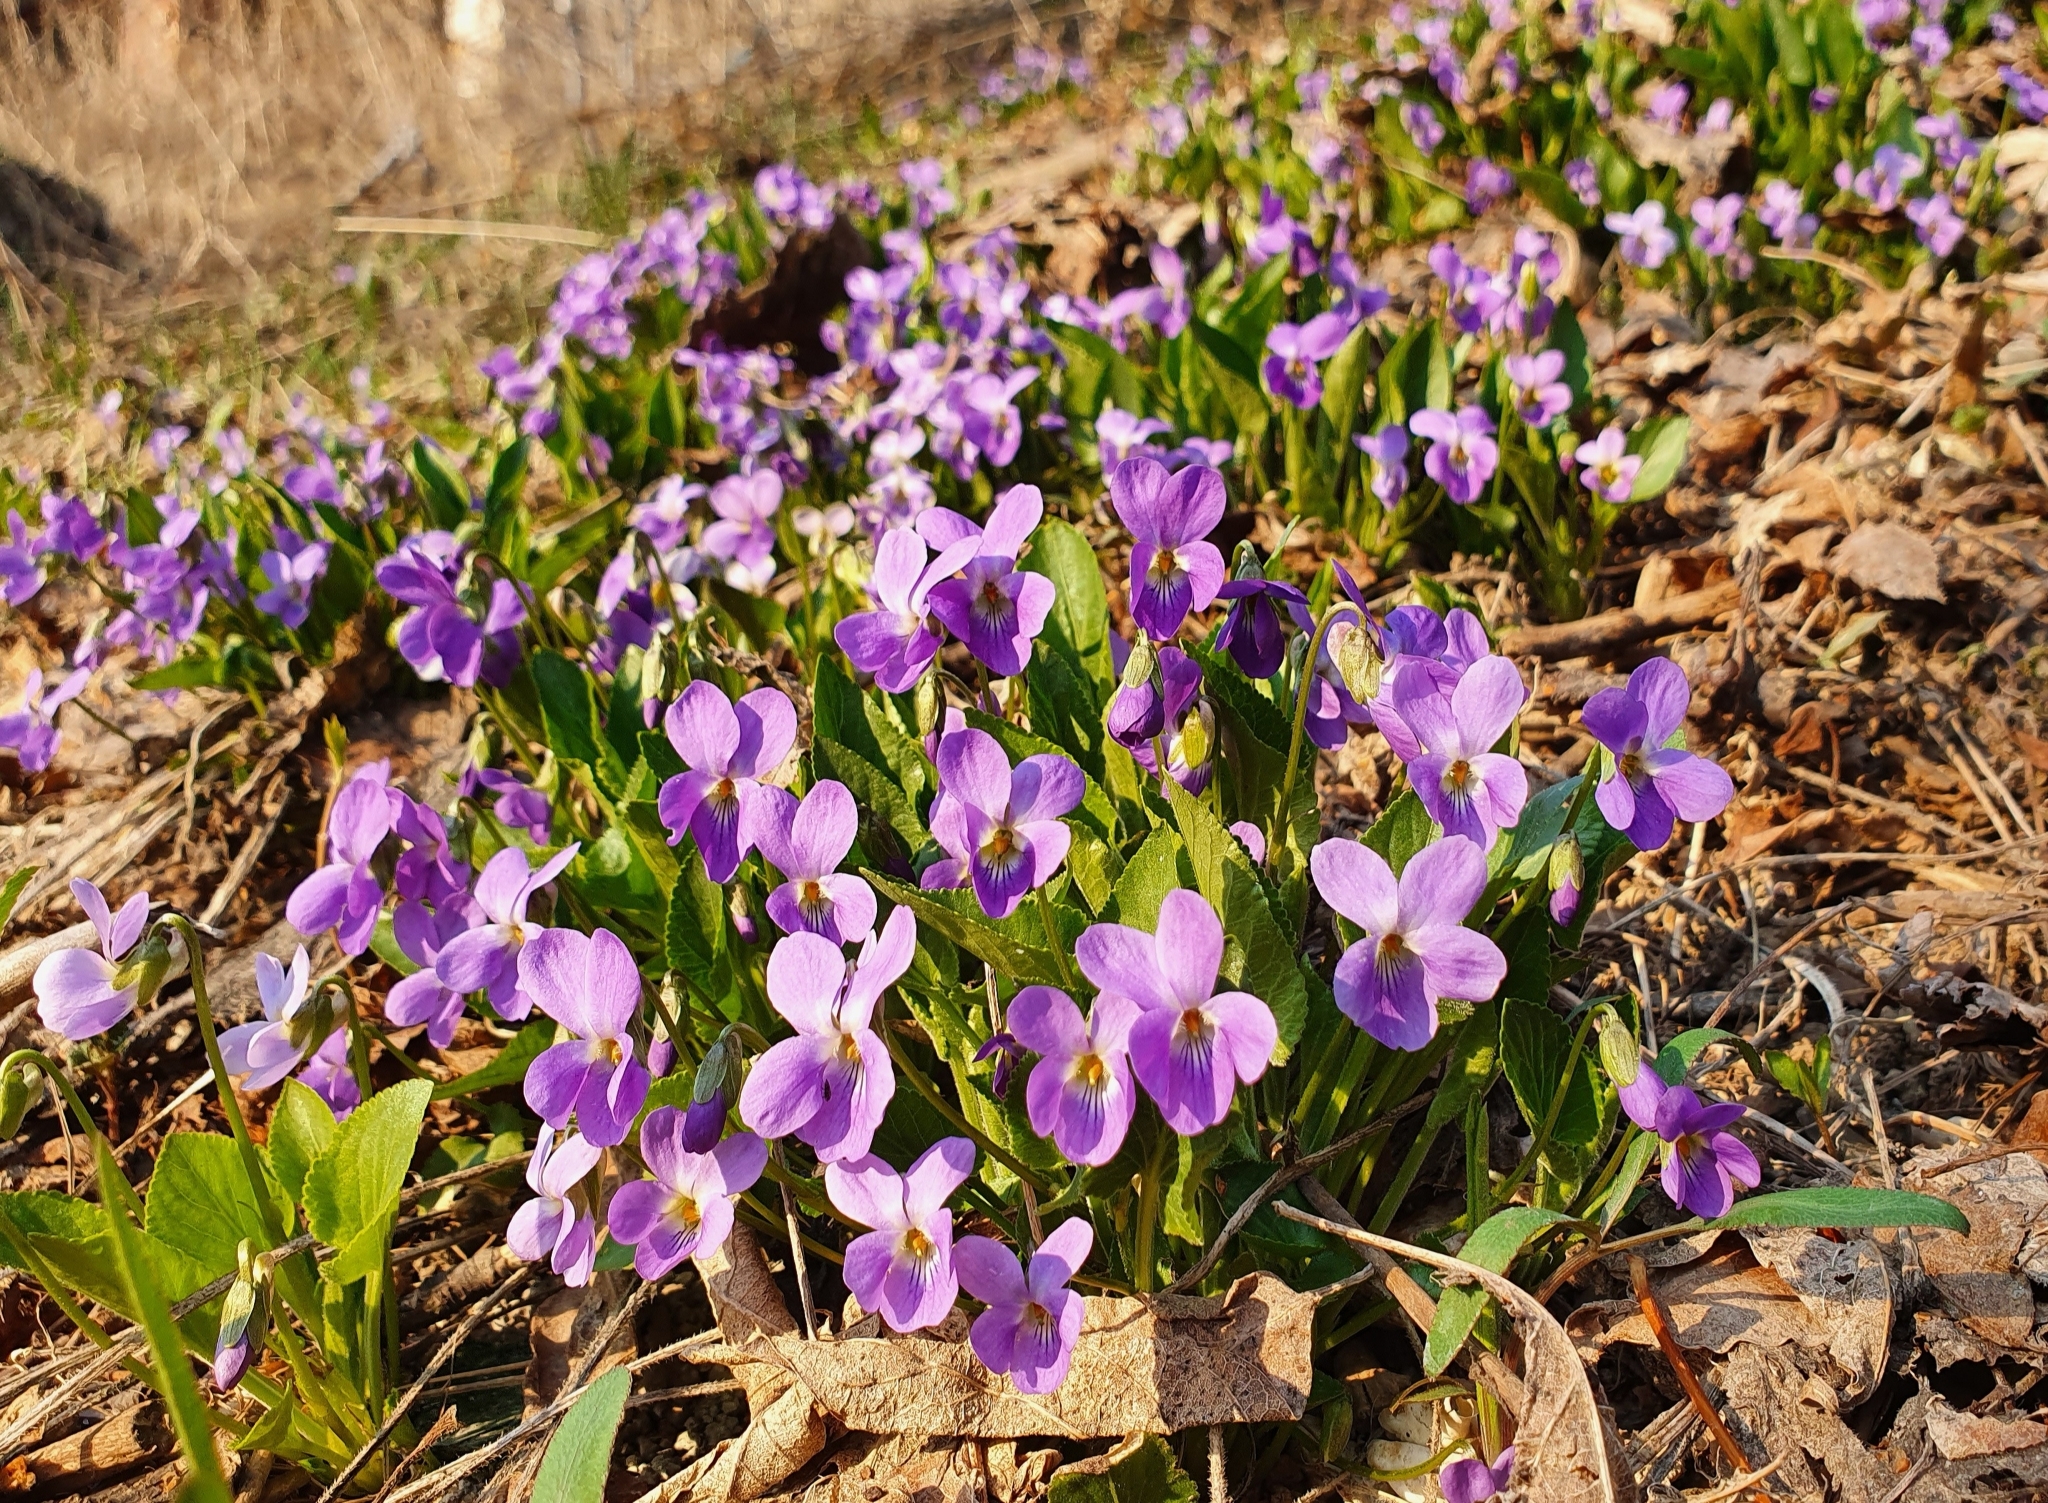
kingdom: Plantae
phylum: Tracheophyta
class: Magnoliopsida
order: Malpighiales
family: Violaceae
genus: Viola
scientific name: Viola ambigua
